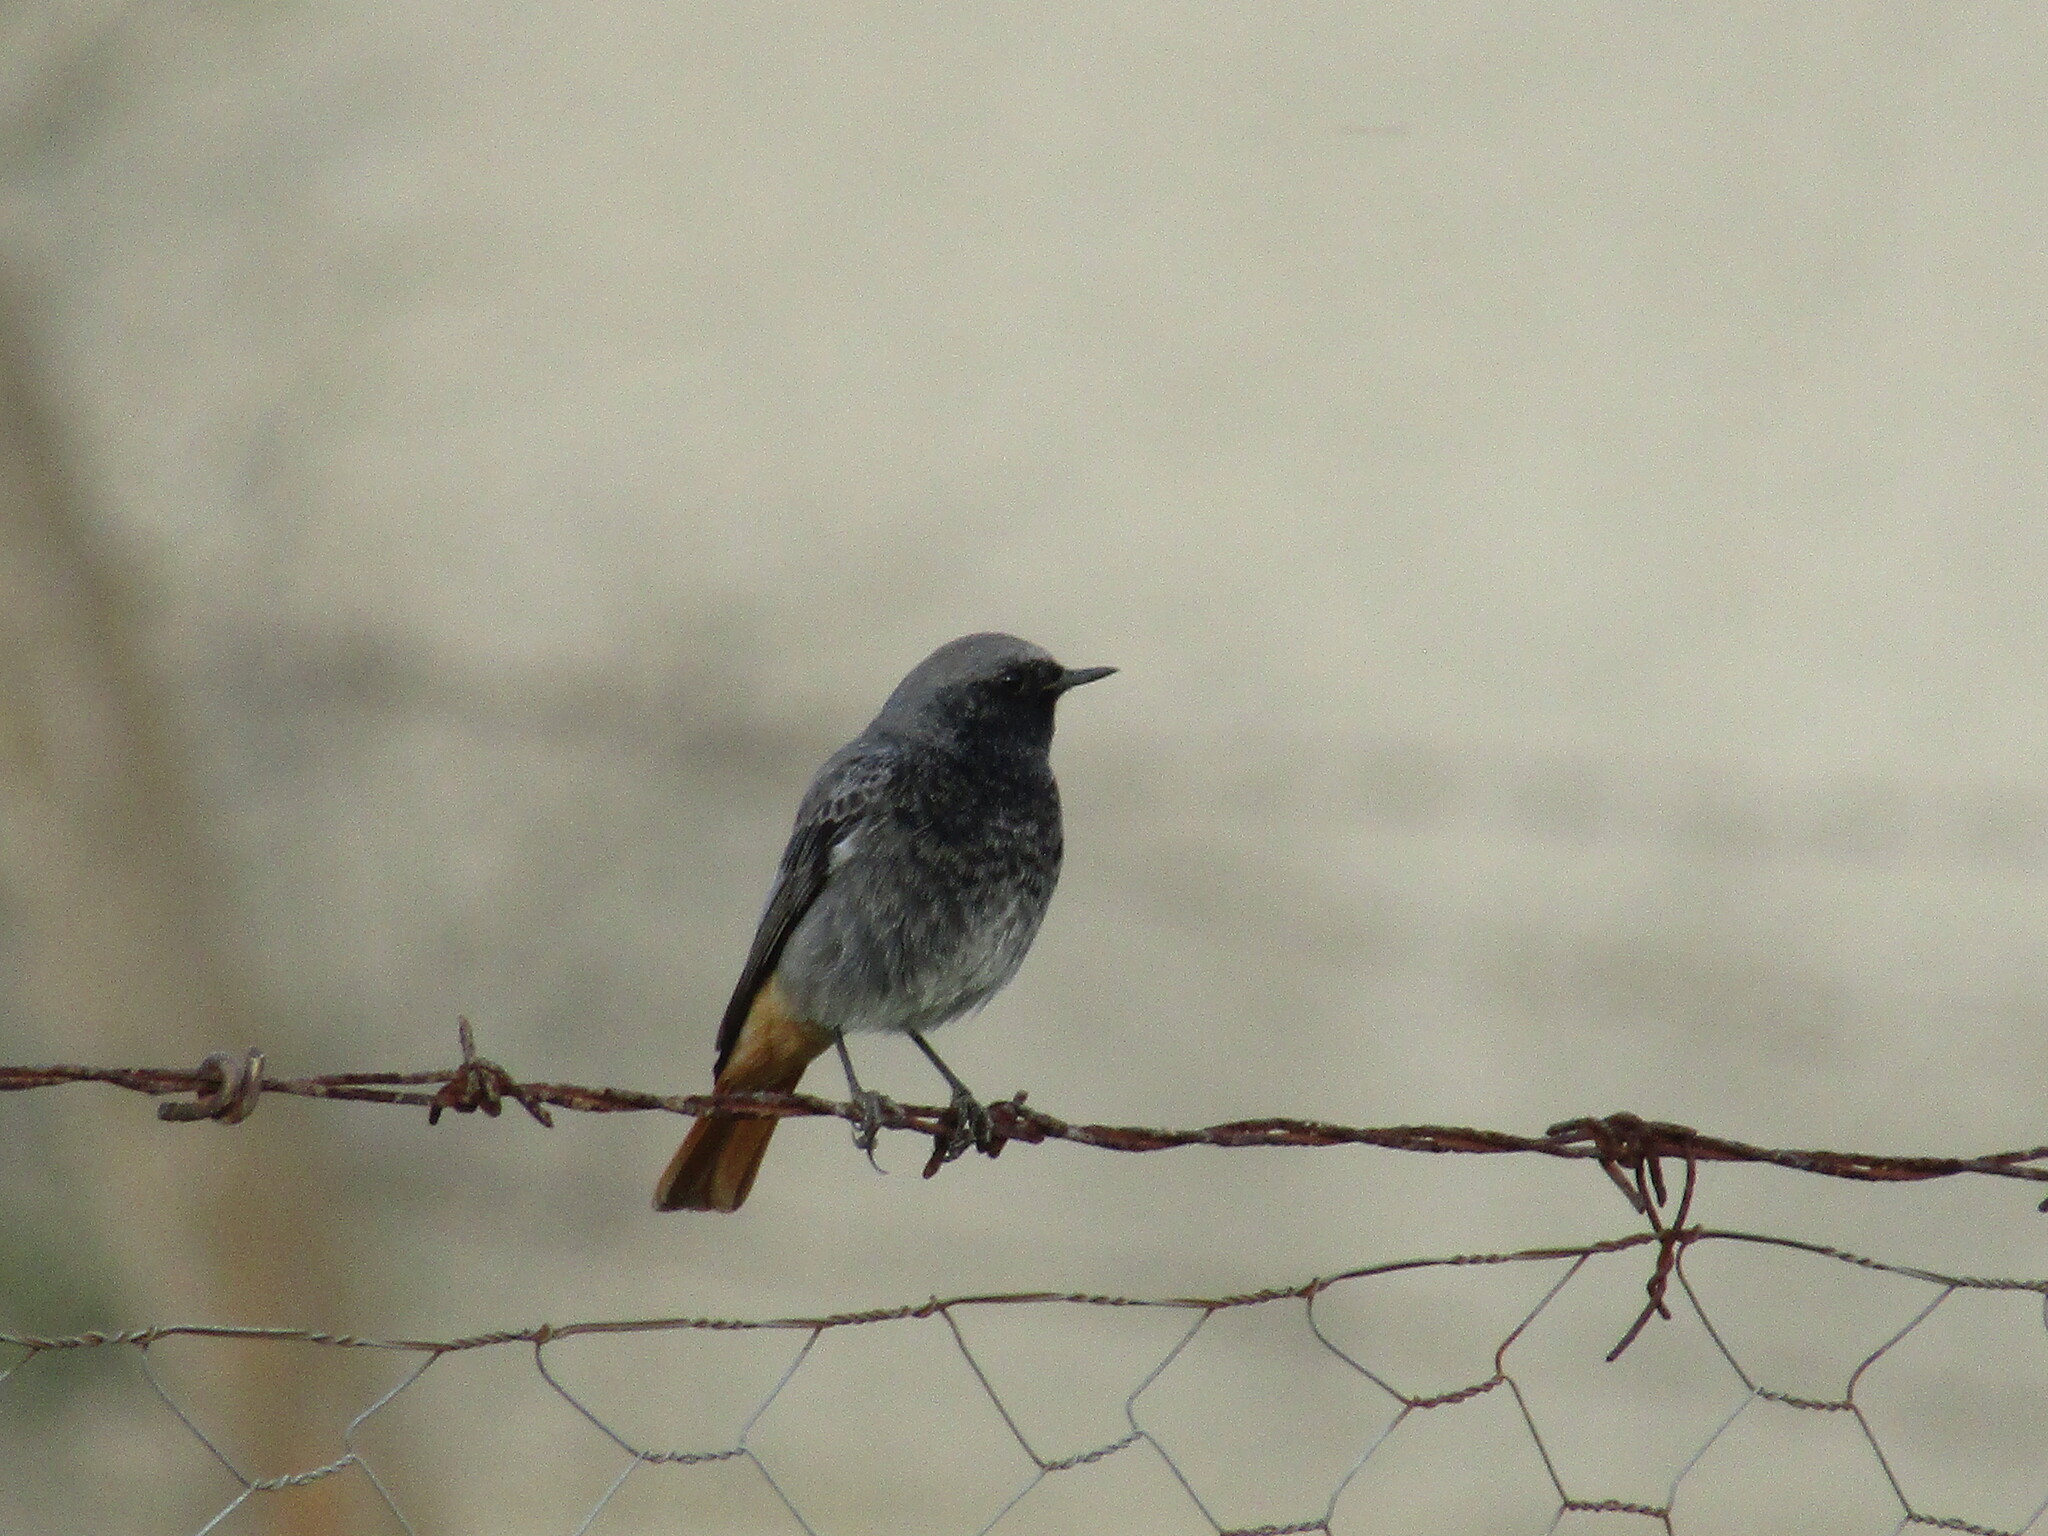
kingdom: Animalia
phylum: Chordata
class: Aves
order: Passeriformes
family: Muscicapidae
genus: Phoenicurus
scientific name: Phoenicurus ochruros
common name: Black redstart
